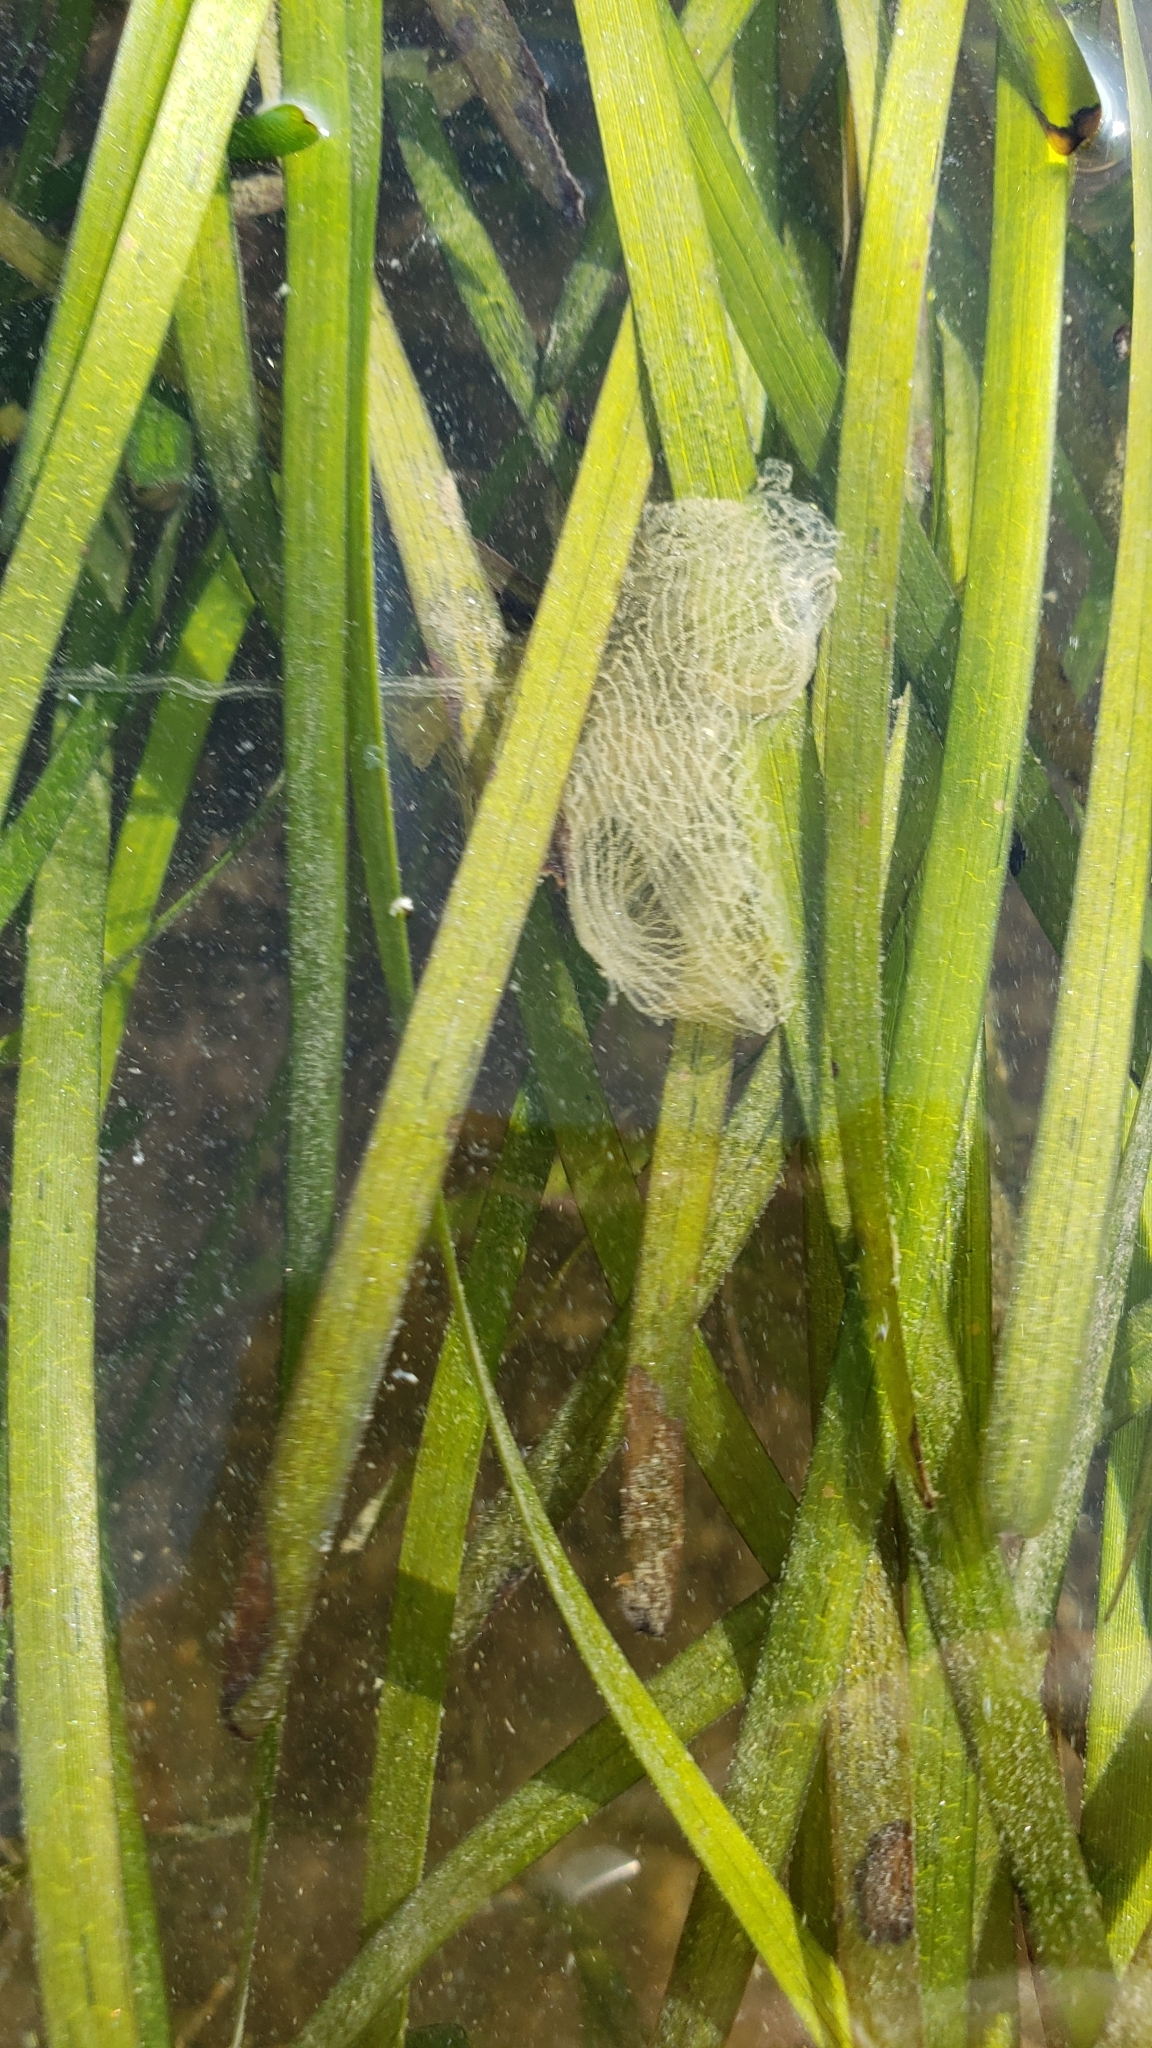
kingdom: Animalia
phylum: Mollusca
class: Gastropoda
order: Cephalaspidea
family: Aglajidae
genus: Navanax
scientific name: Navanax inermis
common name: California aglaja
